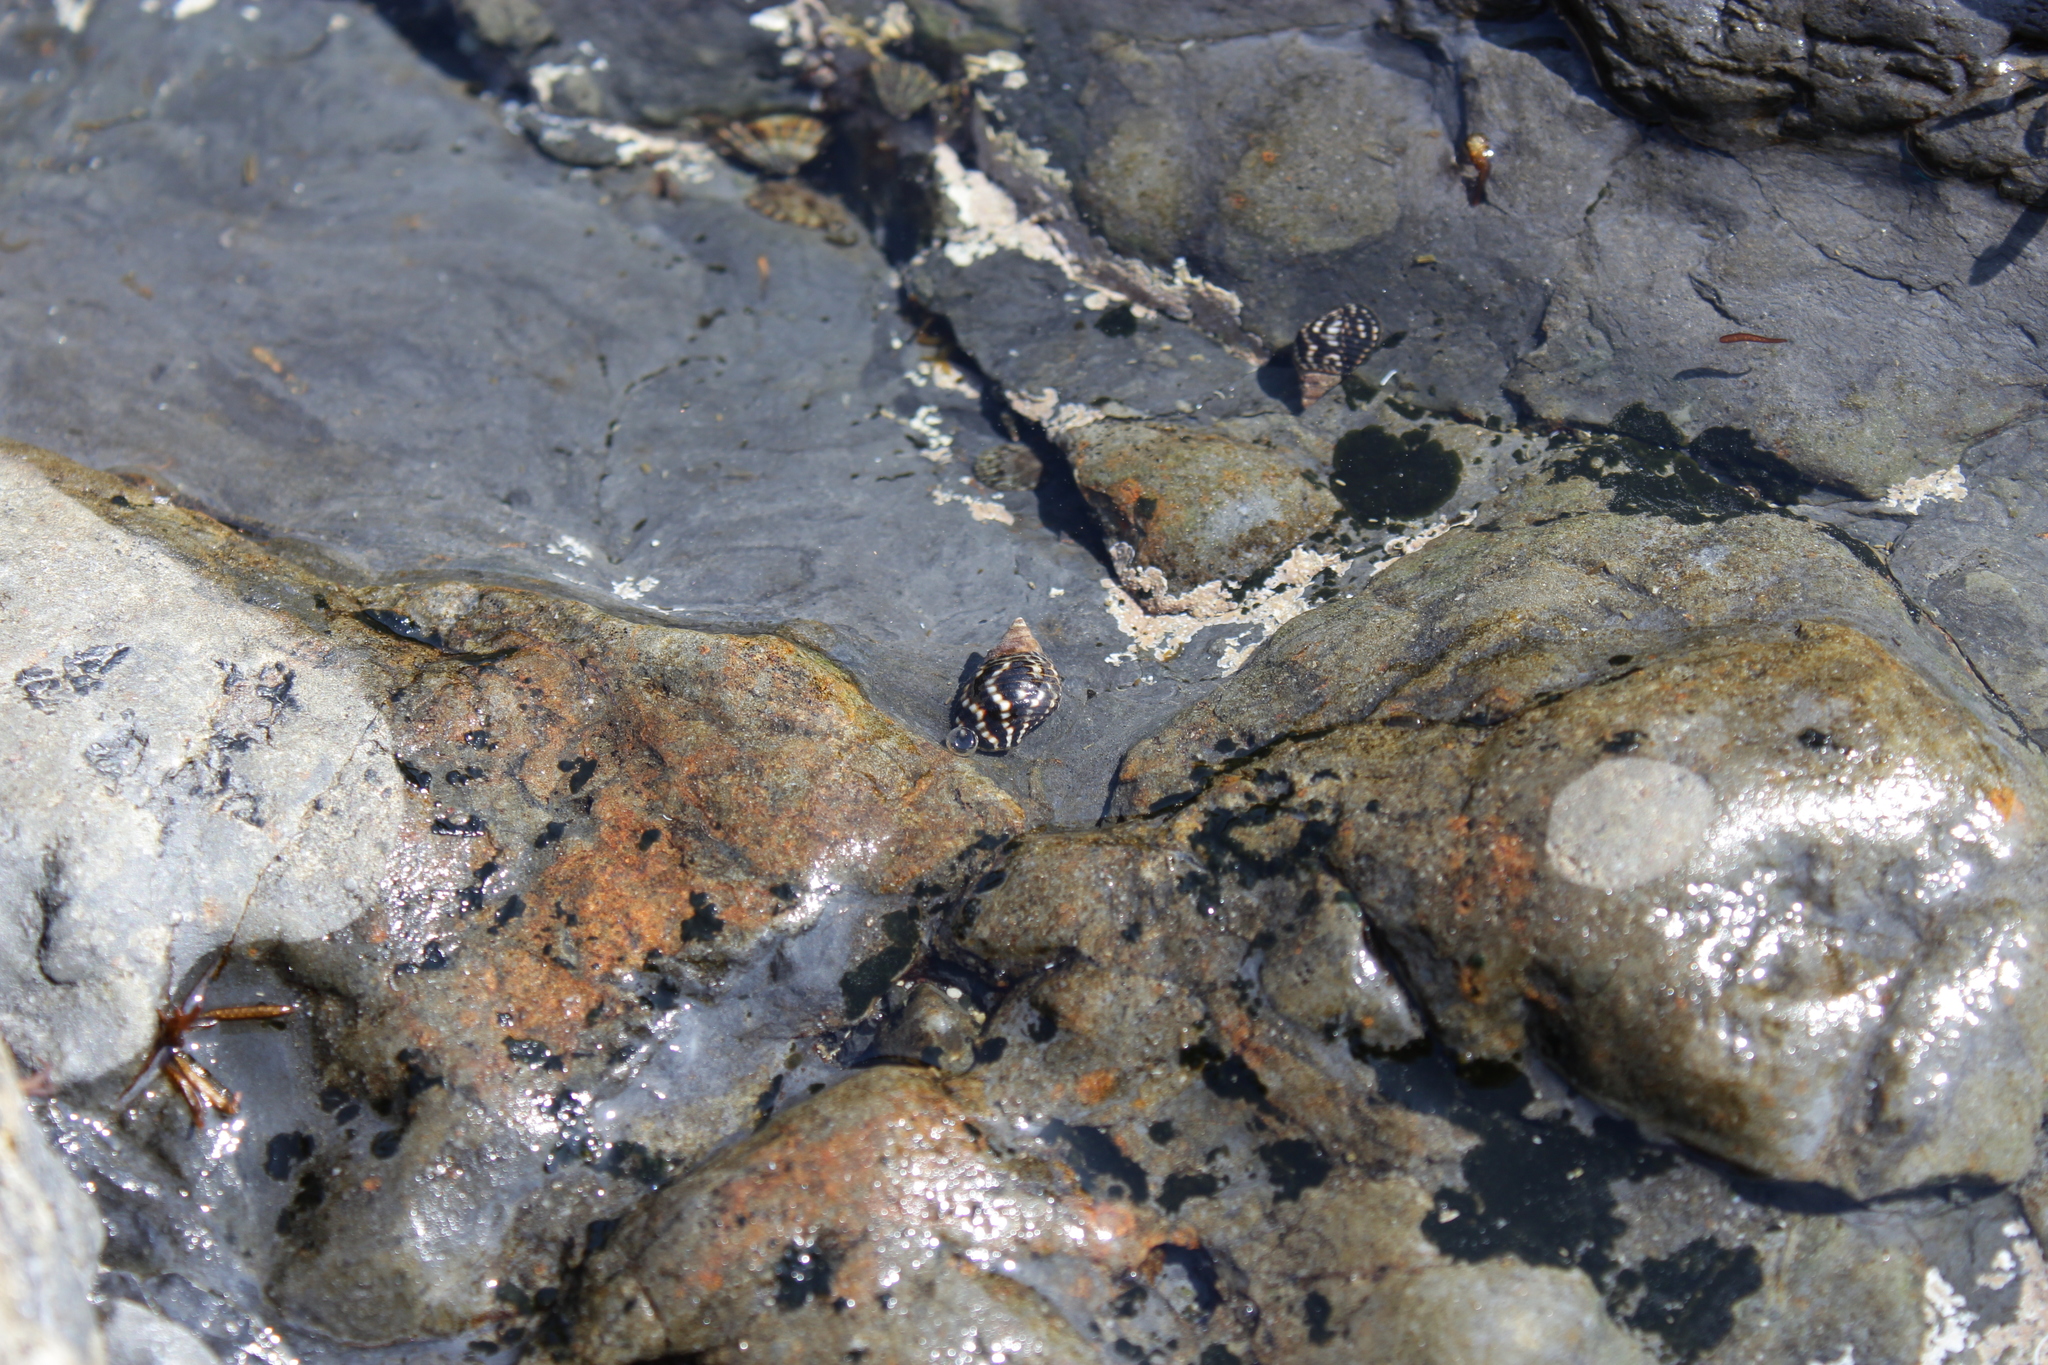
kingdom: Animalia
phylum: Mollusca
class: Gastropoda
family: Planaxidae
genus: Planaxis
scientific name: Planaxis sulcatus
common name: Furrowed planaxis
